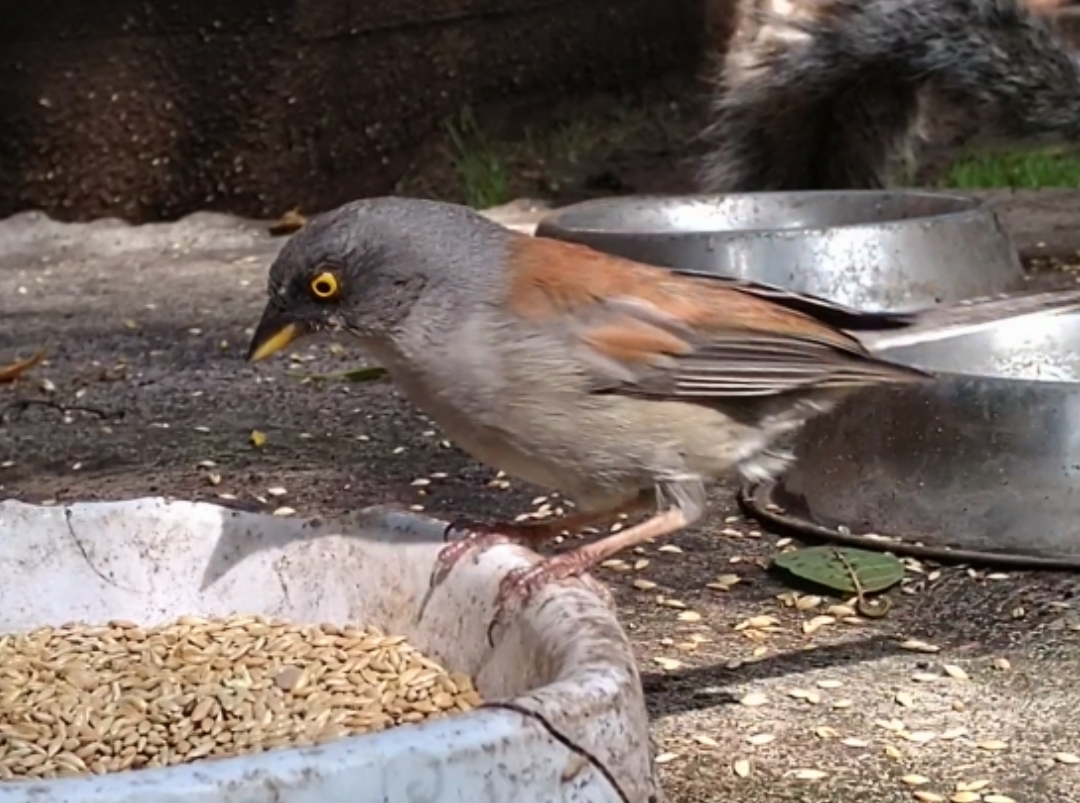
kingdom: Animalia
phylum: Chordata
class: Aves
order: Passeriformes
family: Passerellidae
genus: Junco
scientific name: Junco phaeonotus
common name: Yellow-eyed junco
